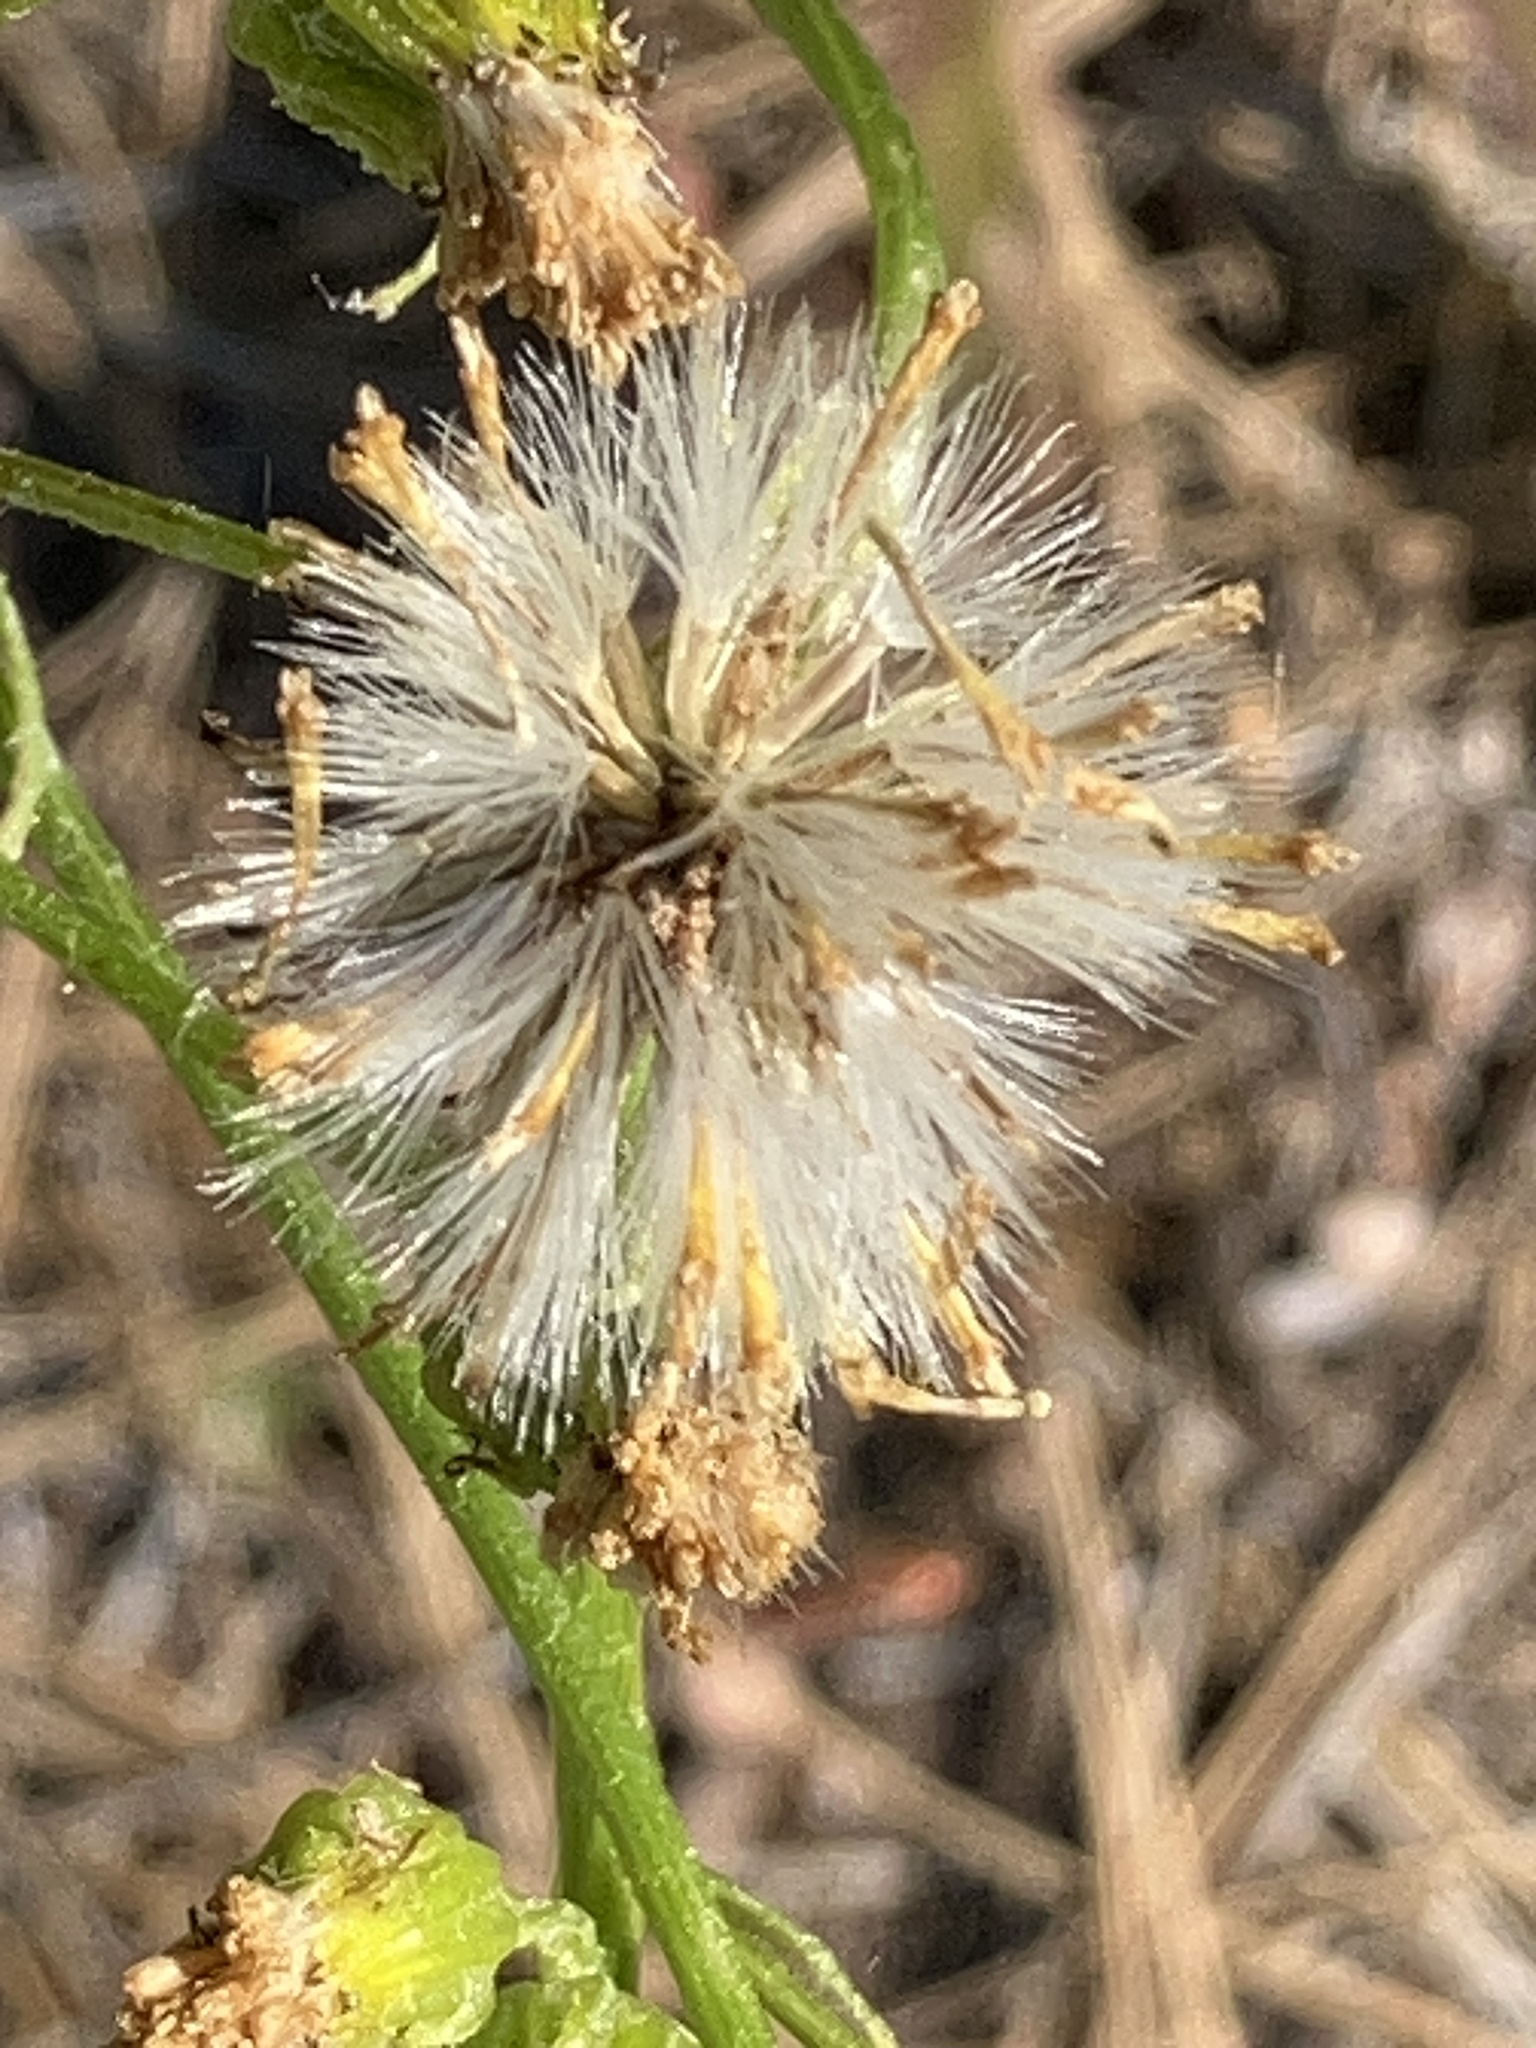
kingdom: Plantae
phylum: Tracheophyta
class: Magnoliopsida
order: Asterales
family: Asteraceae
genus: Senecio
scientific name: Senecio integerrimus
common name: Gaugeplant
